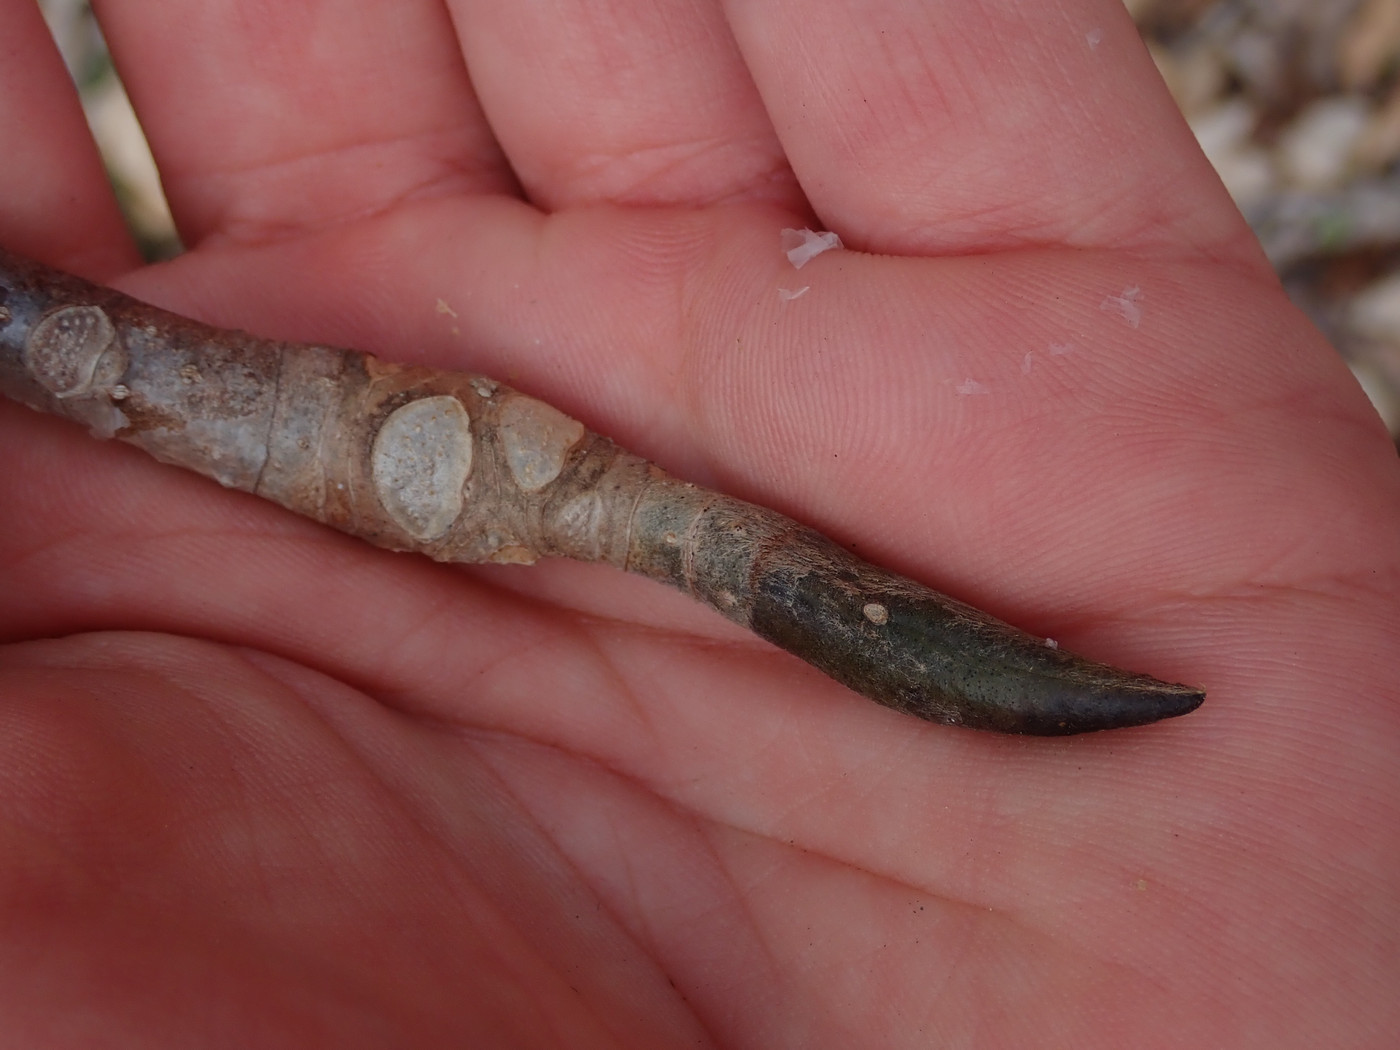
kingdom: Plantae
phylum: Tracheophyta
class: Magnoliopsida
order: Magnoliales
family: Magnoliaceae
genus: Magnolia
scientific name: Magnolia tripetala
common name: Umbrella magnolia
